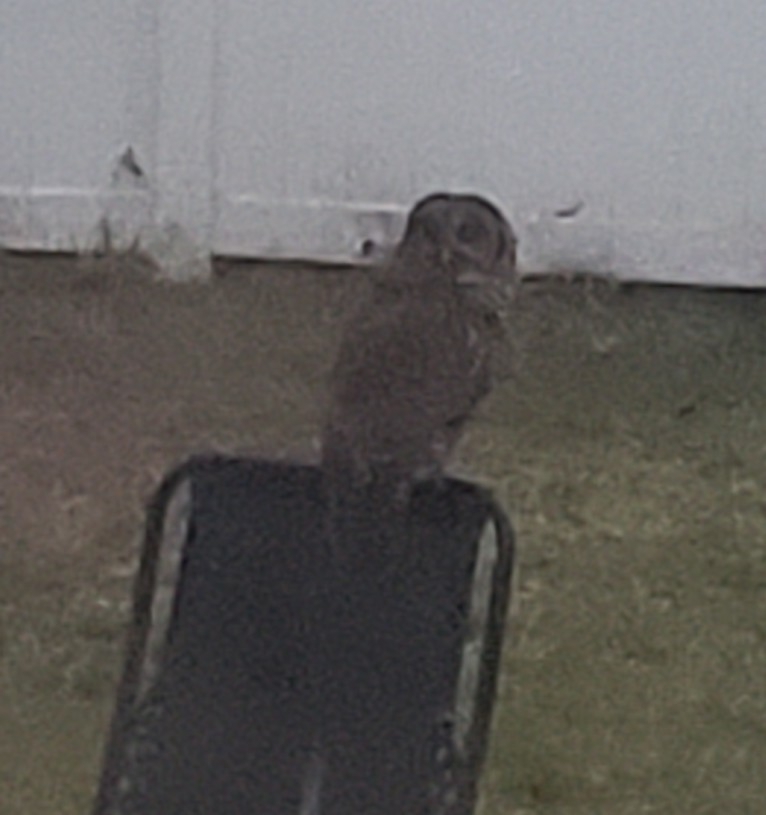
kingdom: Animalia
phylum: Chordata
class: Aves
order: Strigiformes
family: Strigidae
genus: Strix
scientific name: Strix varia
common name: Barred owl
